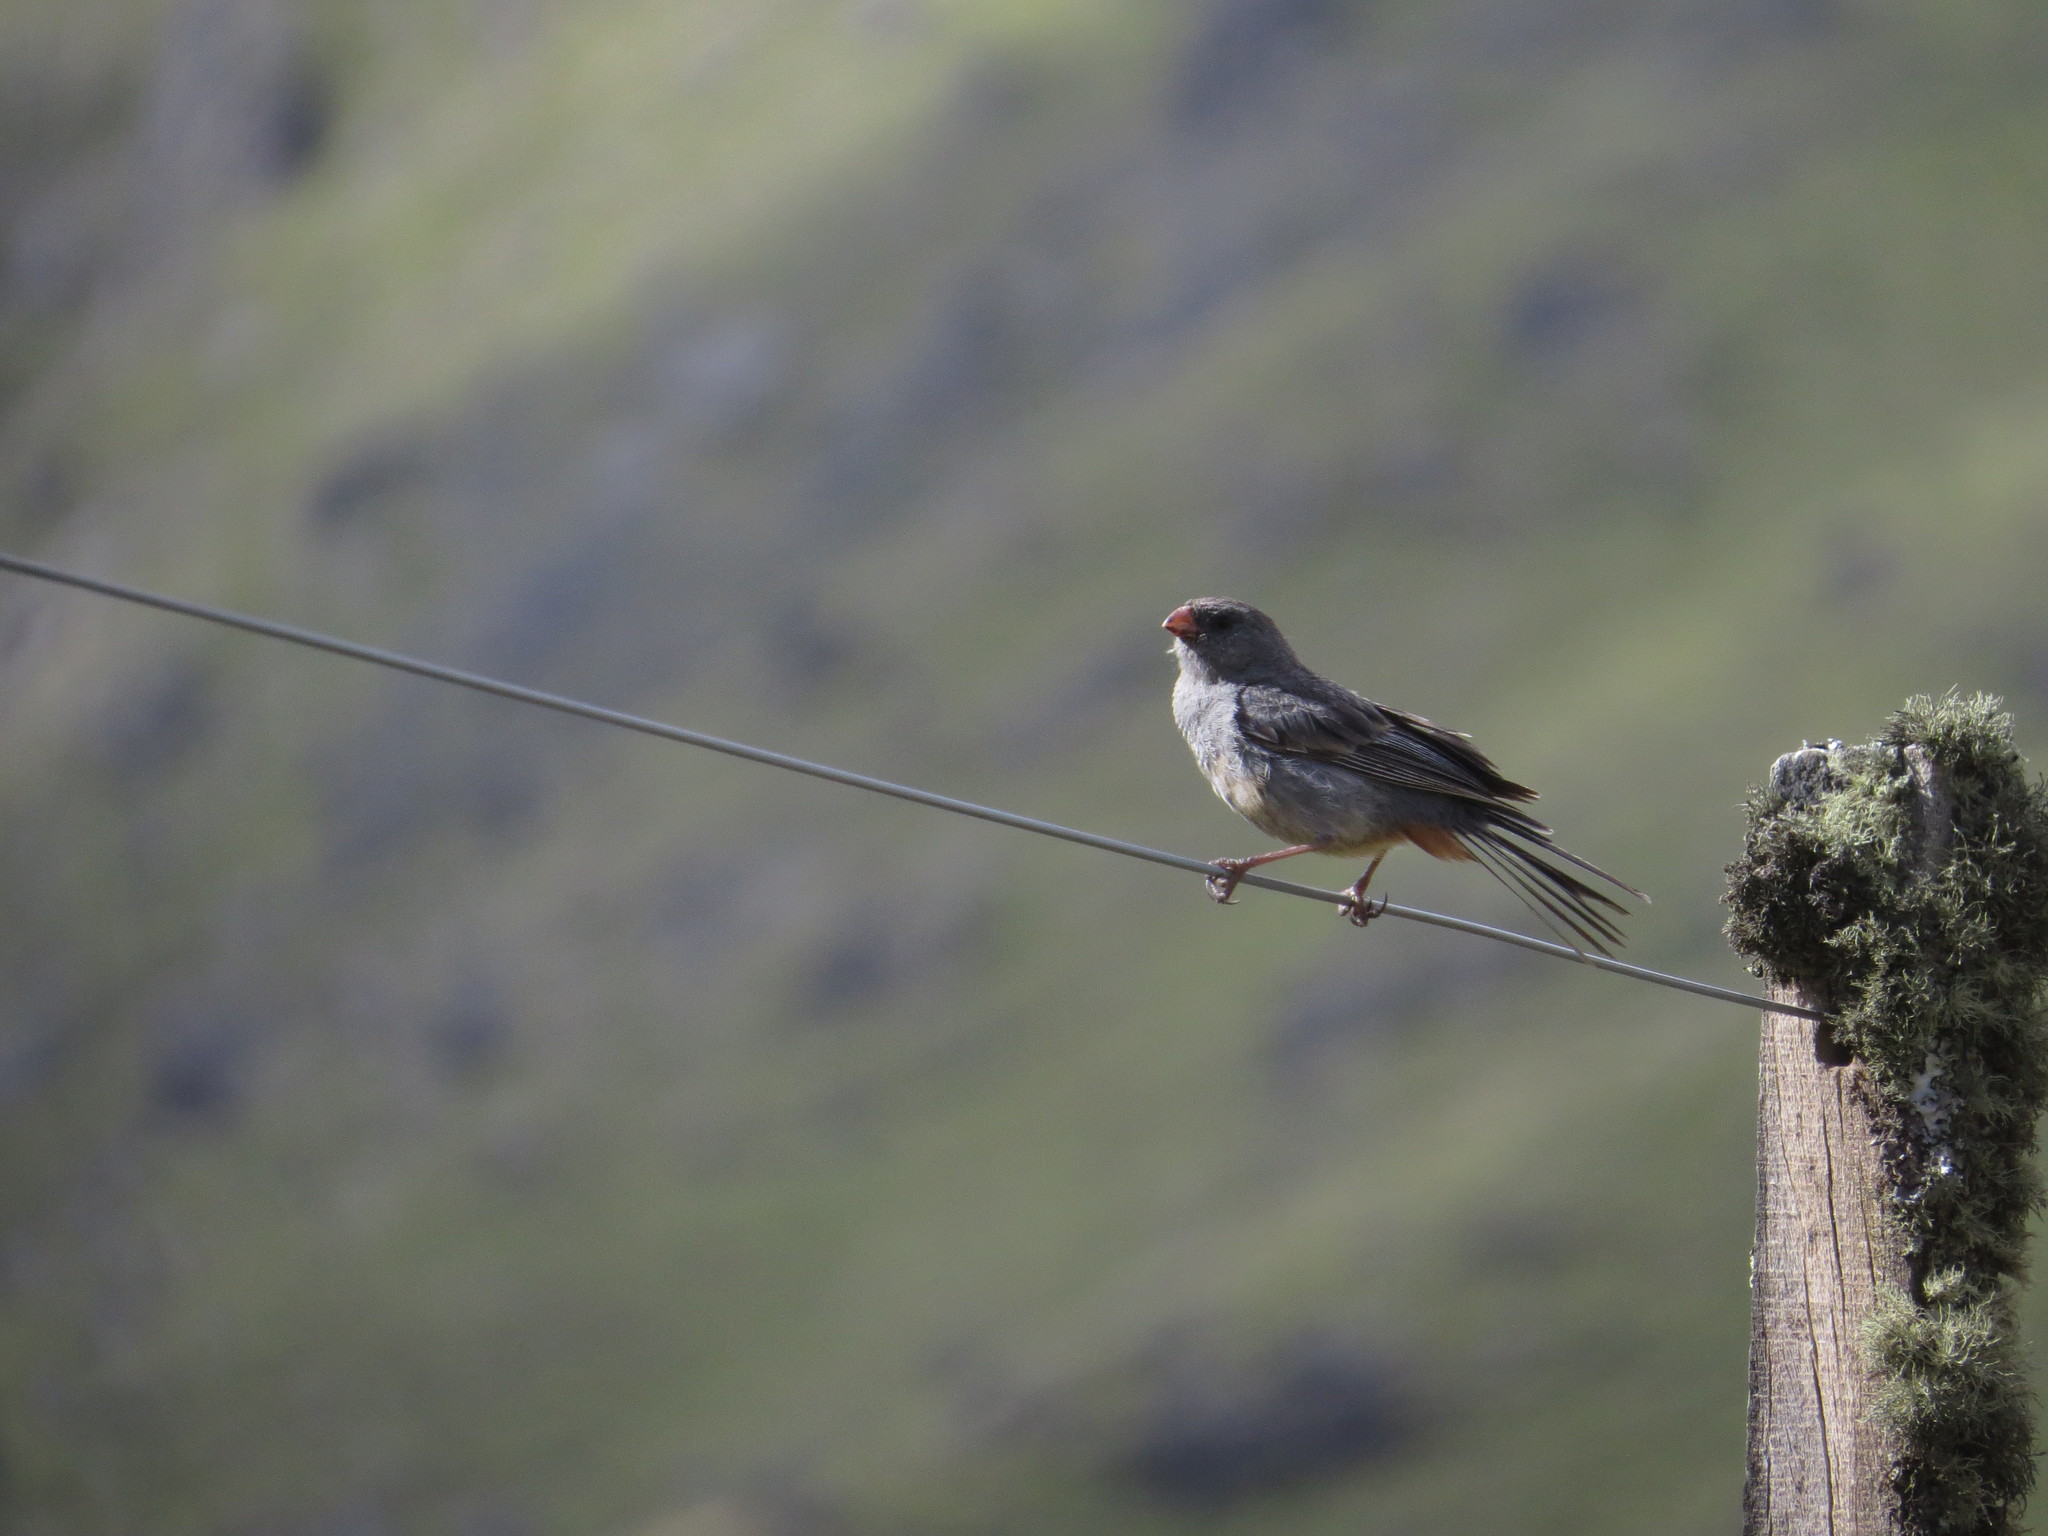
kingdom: Animalia
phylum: Chordata
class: Aves
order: Passeriformes
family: Thraupidae
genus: Catamenia
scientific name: Catamenia inornata
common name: Plain-colored seedeater
